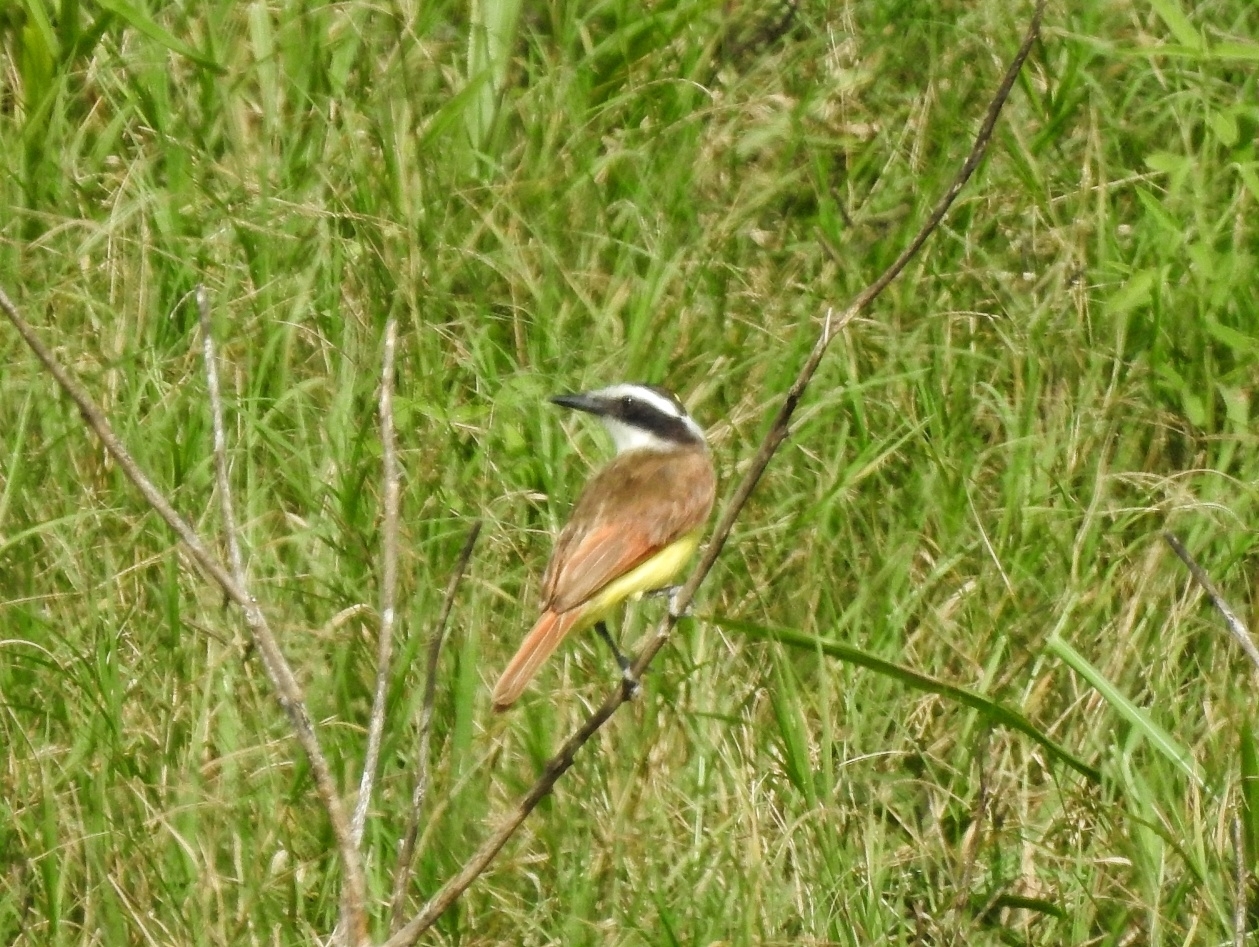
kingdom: Animalia
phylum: Chordata
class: Aves
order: Passeriformes
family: Tyrannidae
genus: Pitangus
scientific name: Pitangus sulphuratus
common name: Great kiskadee
